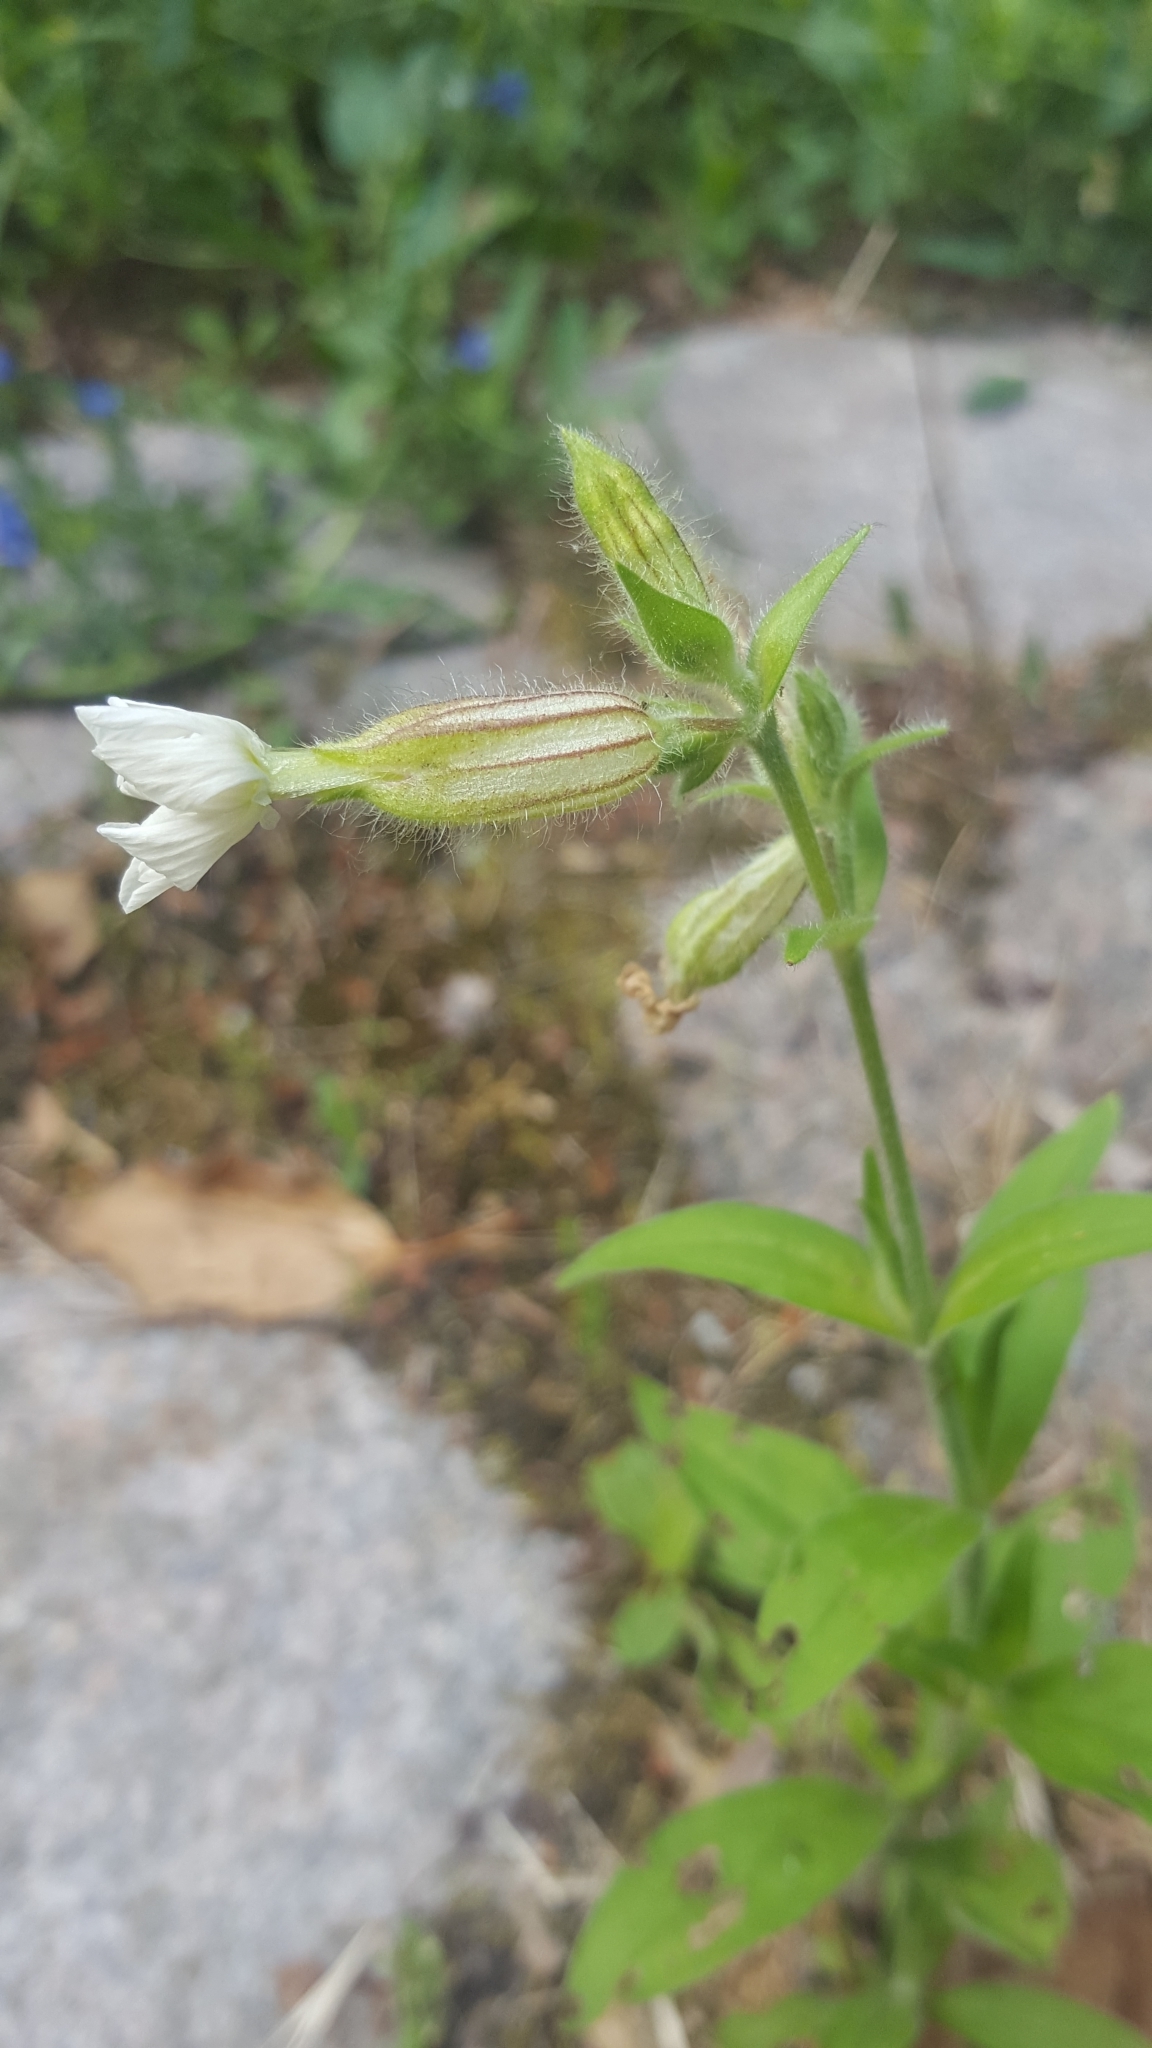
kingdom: Plantae
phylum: Tracheophyta
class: Magnoliopsida
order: Caryophyllales
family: Caryophyllaceae
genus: Silene
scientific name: Silene latifolia
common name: White campion
